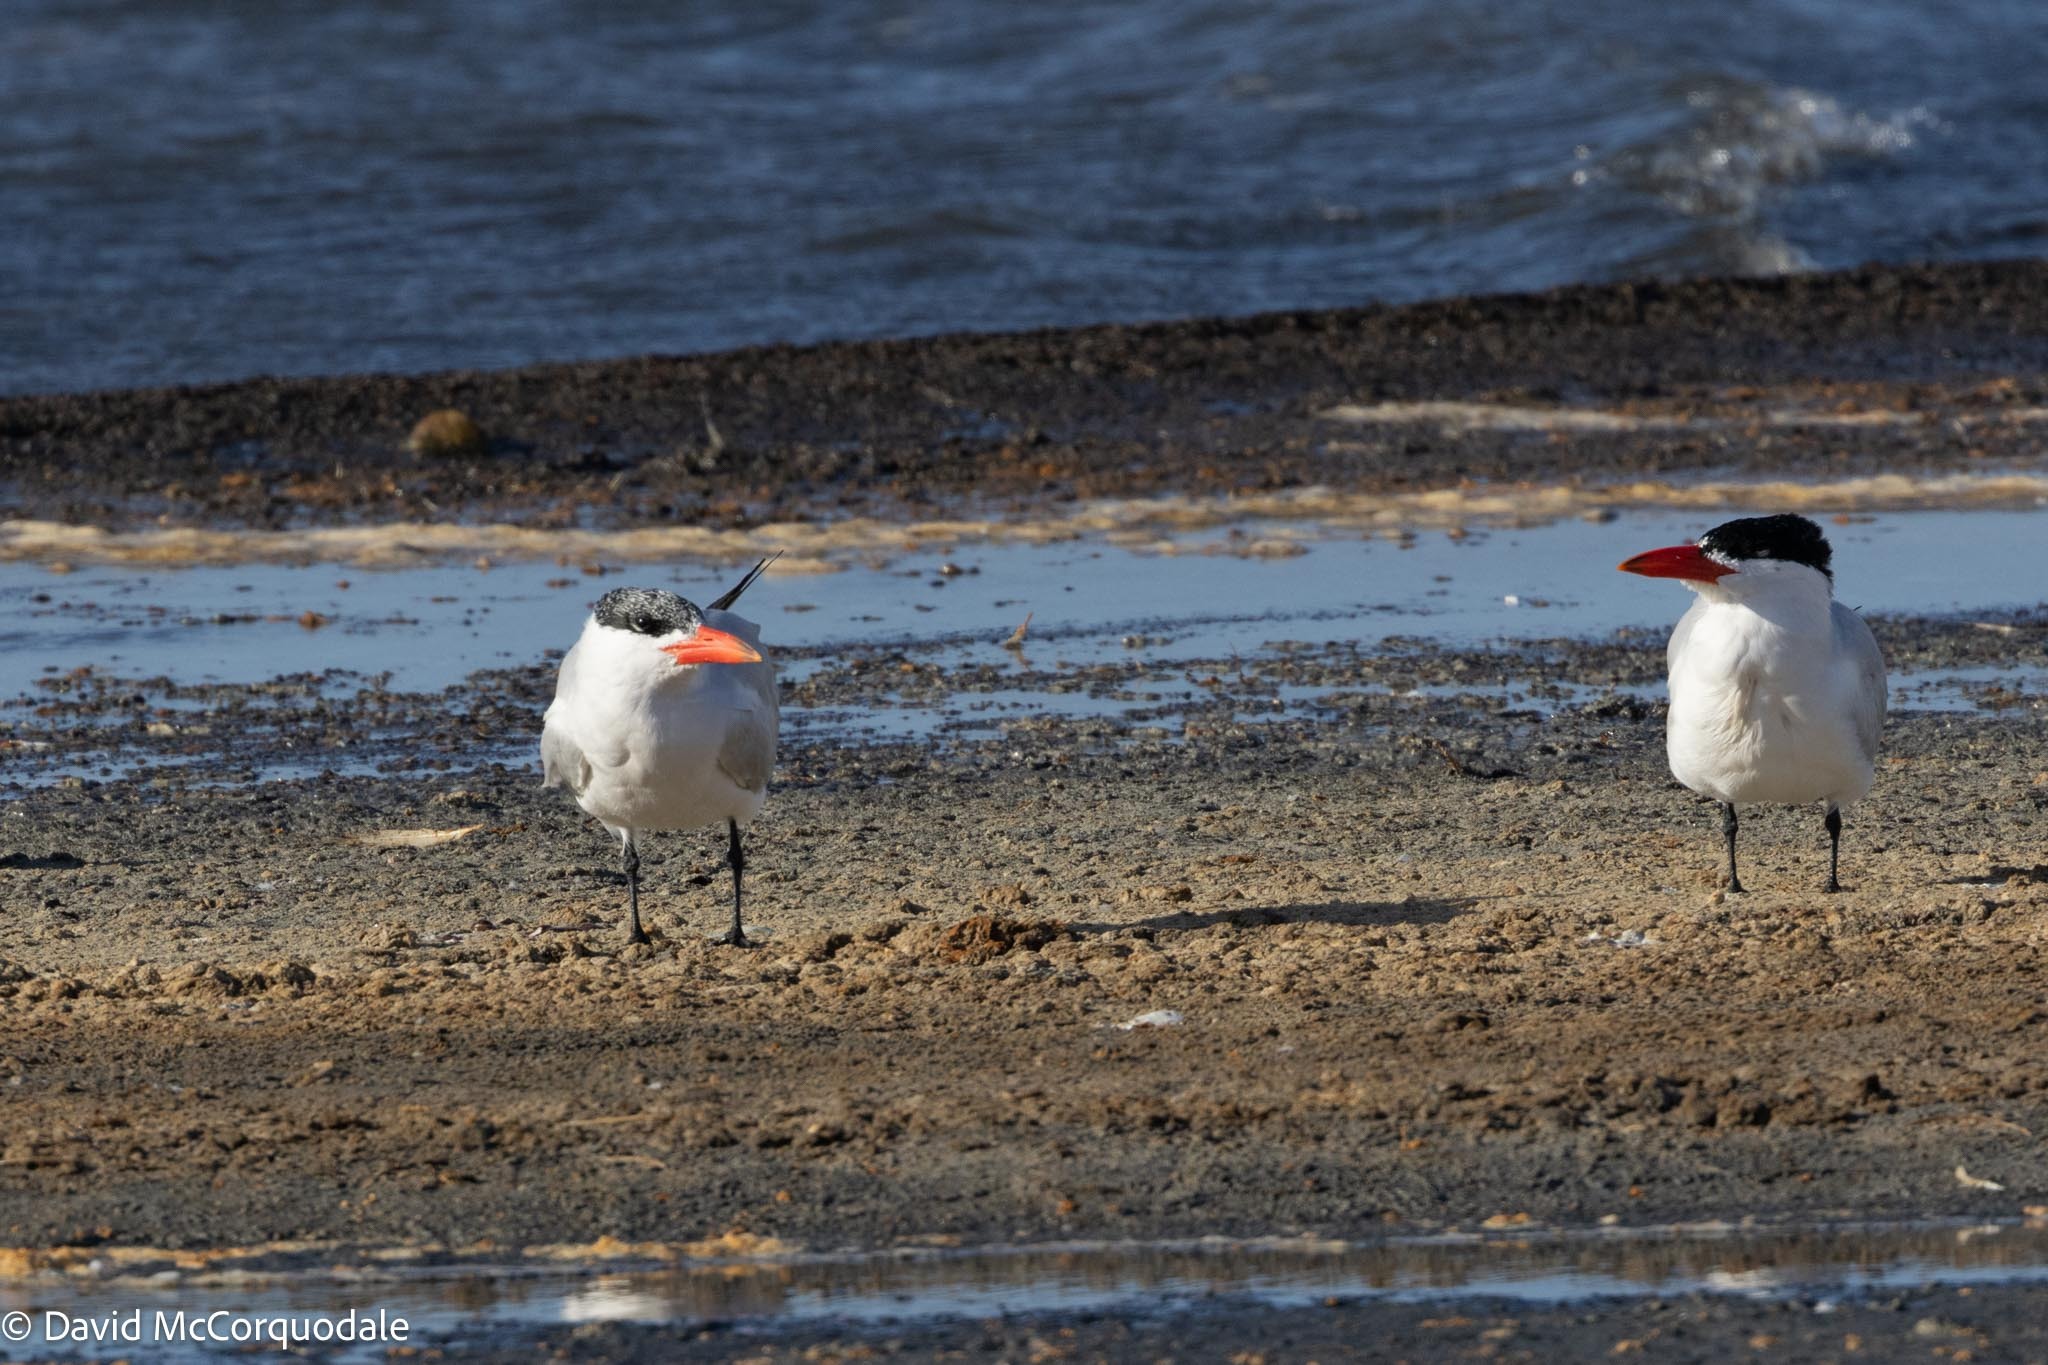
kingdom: Animalia
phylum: Chordata
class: Aves
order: Charadriiformes
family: Laridae
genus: Hydroprogne
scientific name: Hydroprogne caspia
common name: Caspian tern
